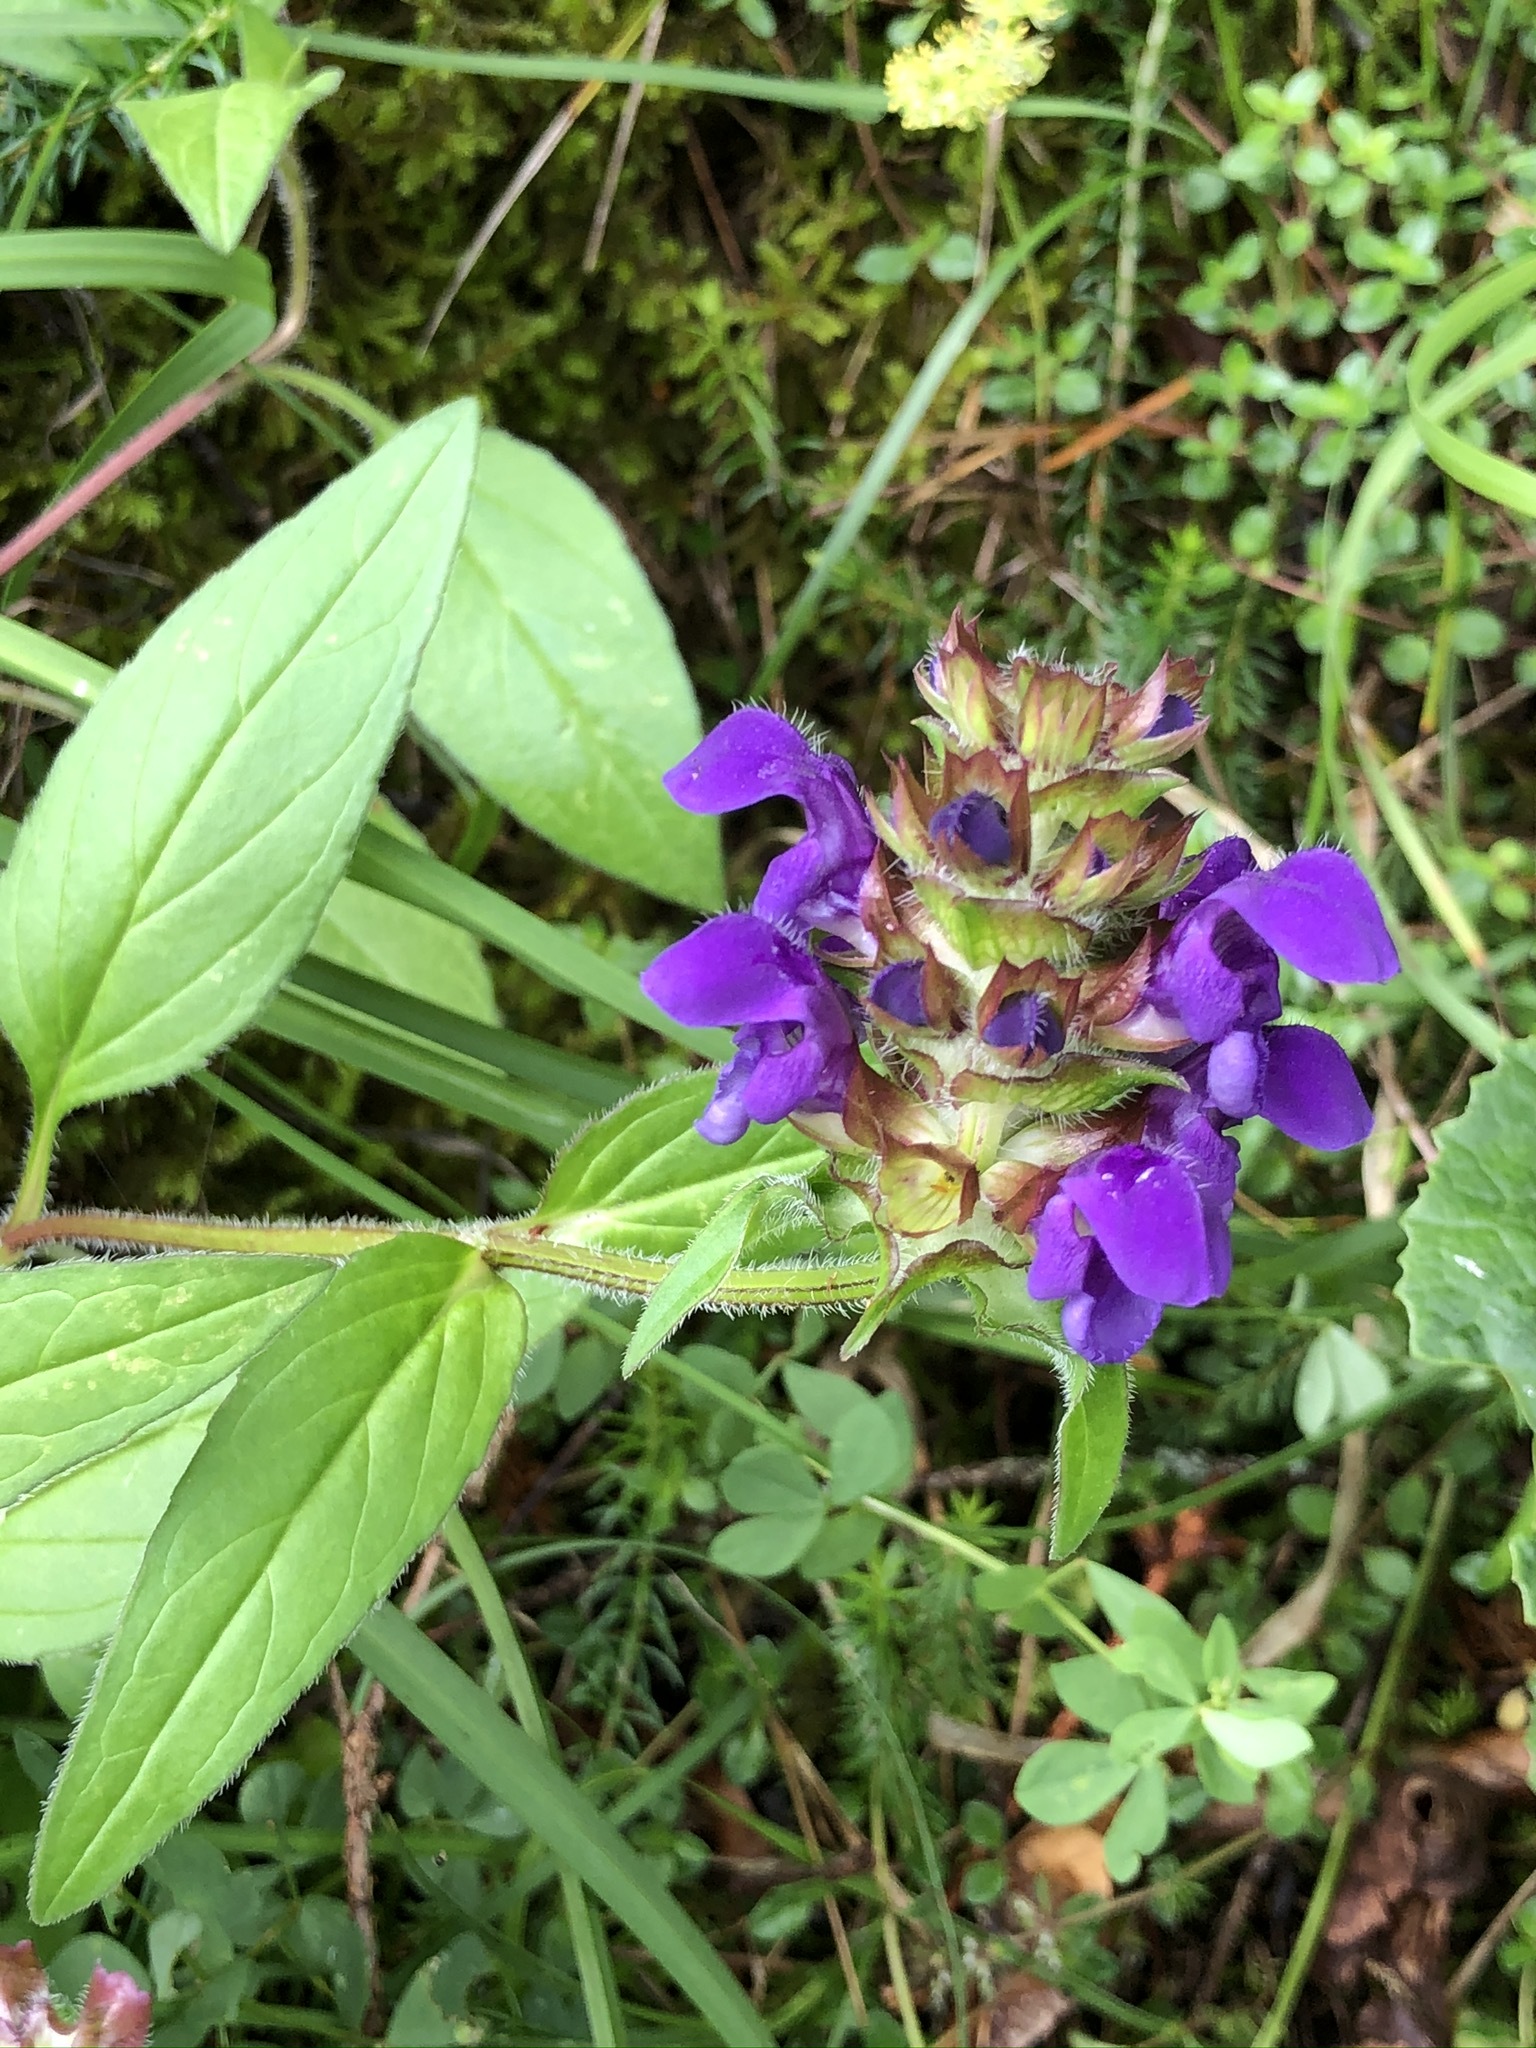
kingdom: Plantae
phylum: Tracheophyta
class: Magnoliopsida
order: Lamiales
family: Lamiaceae
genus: Prunella
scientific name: Prunella grandiflora
